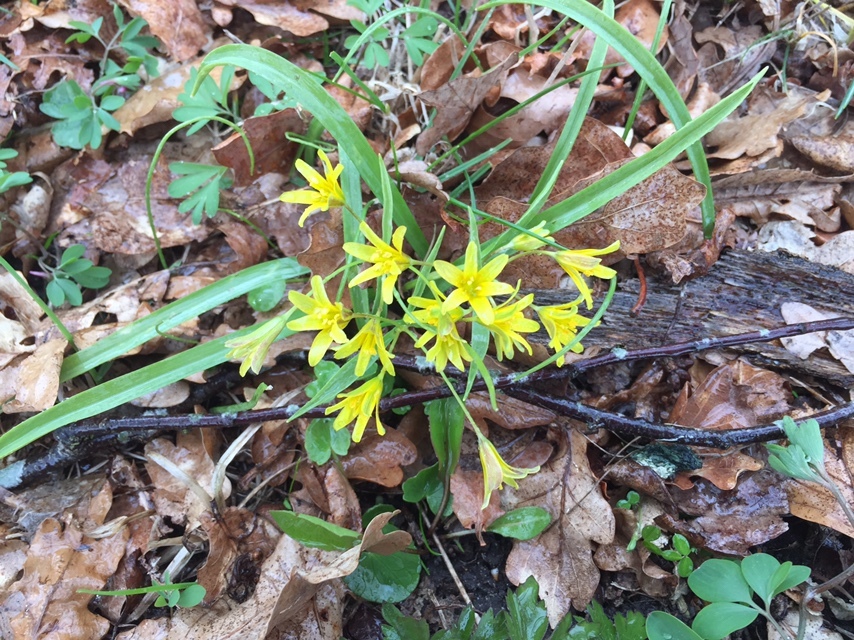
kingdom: Plantae
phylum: Tracheophyta
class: Liliopsida
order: Liliales
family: Liliaceae
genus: Gagea
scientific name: Gagea lutea
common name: Yellow star-of-bethlehem
